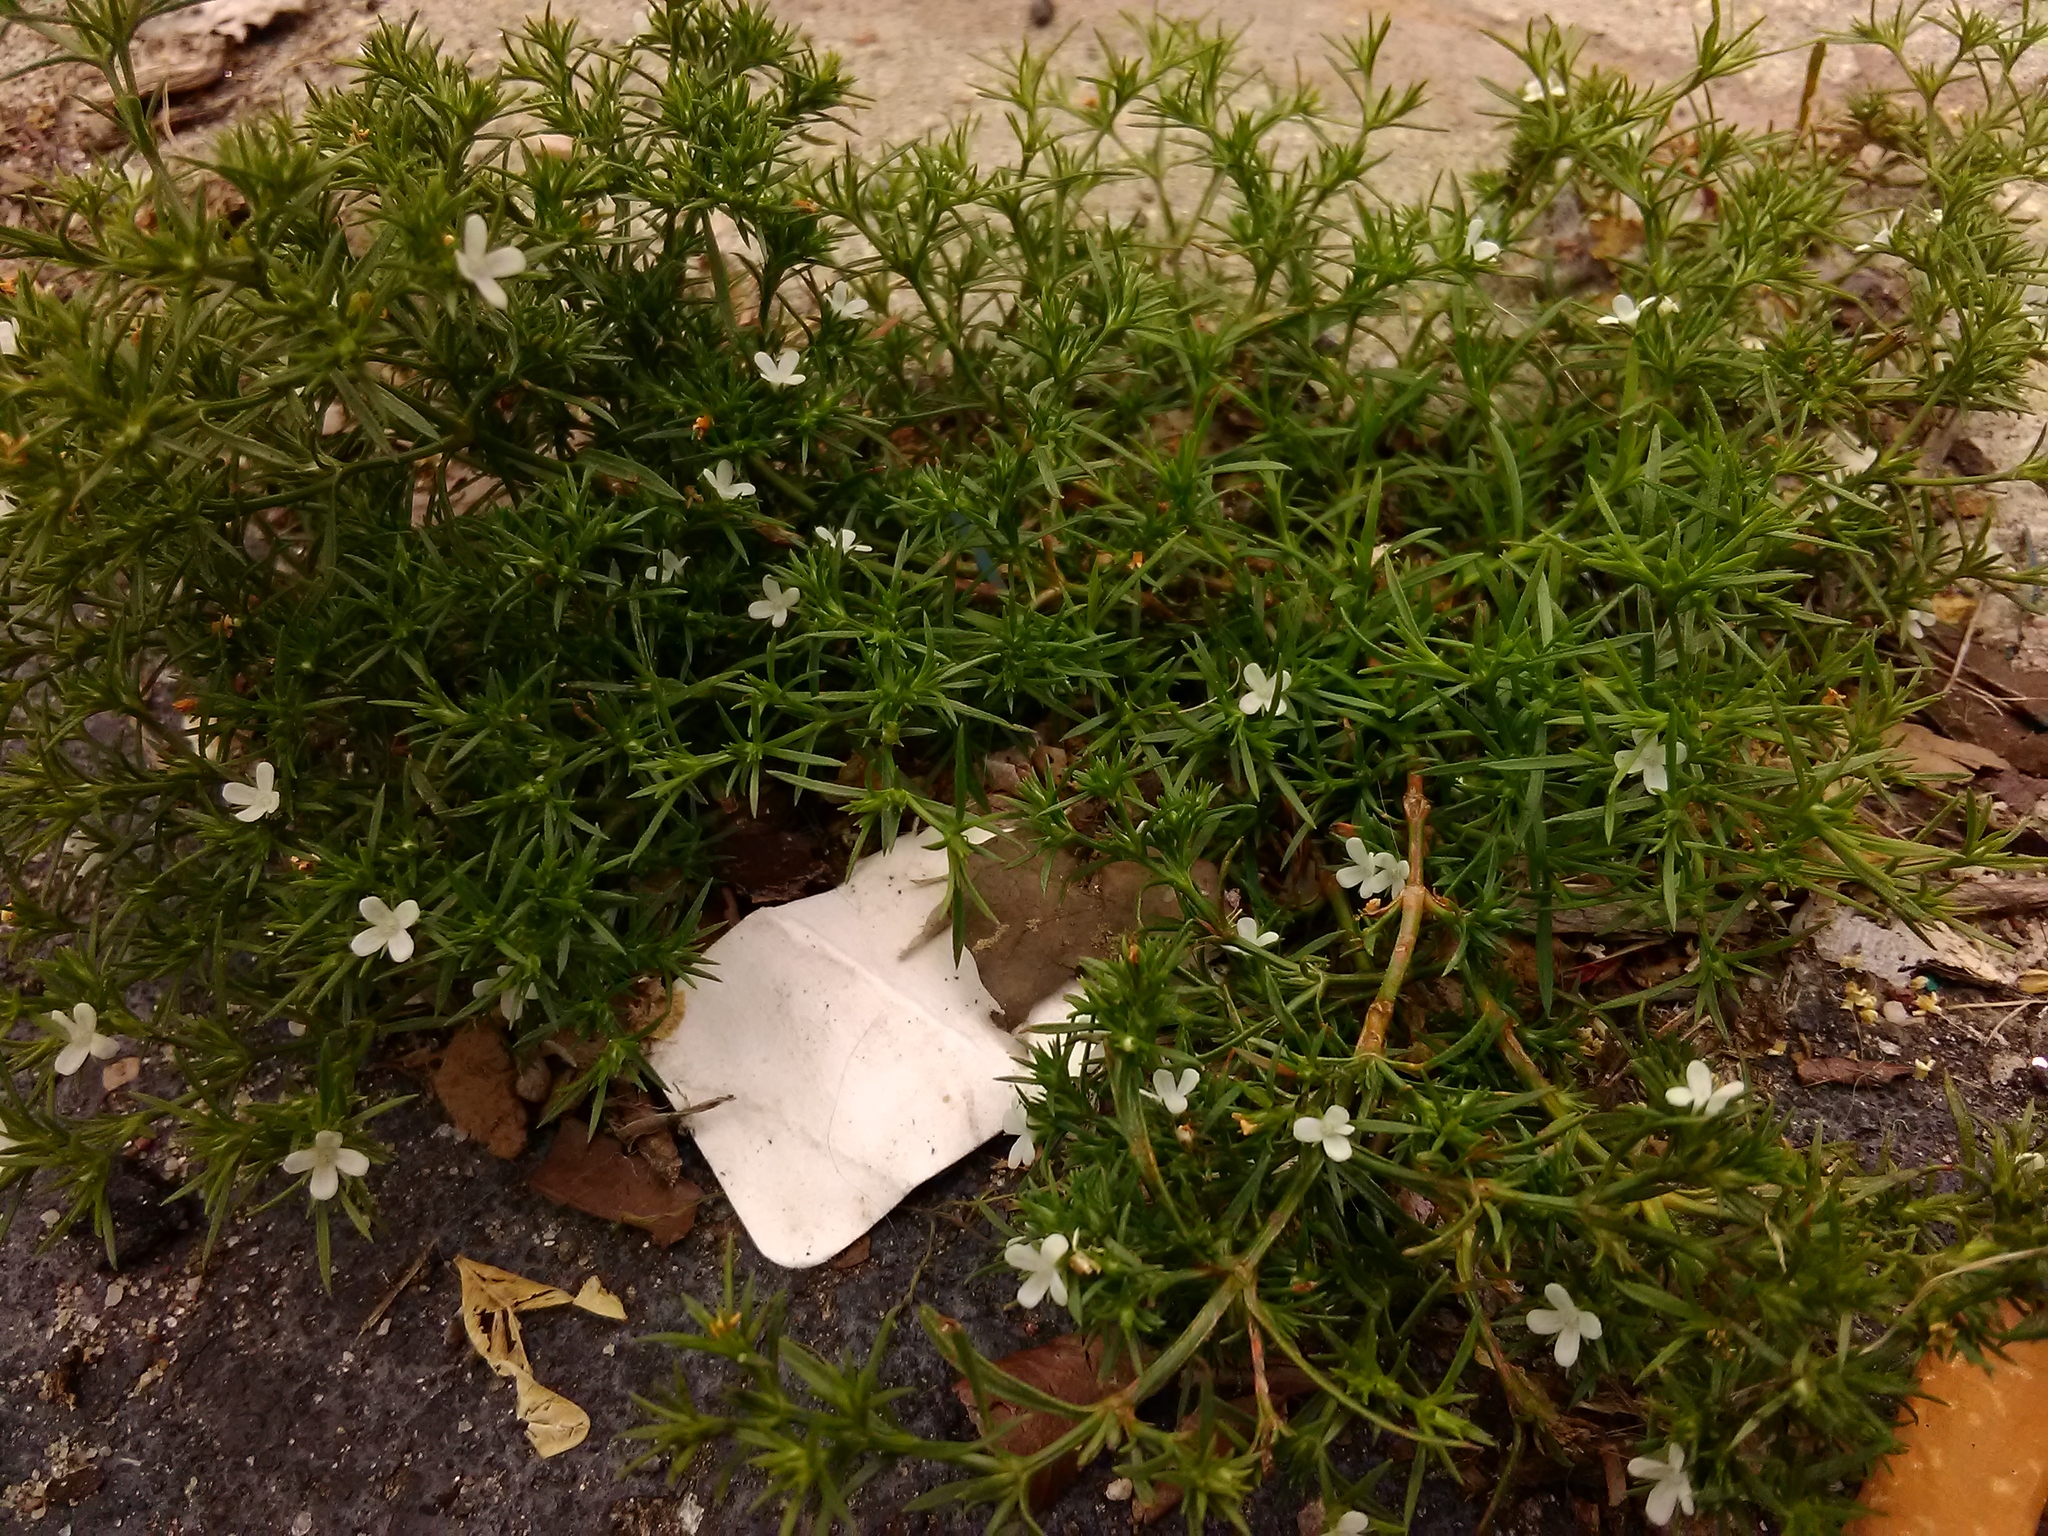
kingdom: Plantae
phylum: Tracheophyta
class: Magnoliopsida
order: Lamiales
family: Tetrachondraceae
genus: Polypremum
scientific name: Polypremum procumbens
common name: Juniper-leaf
